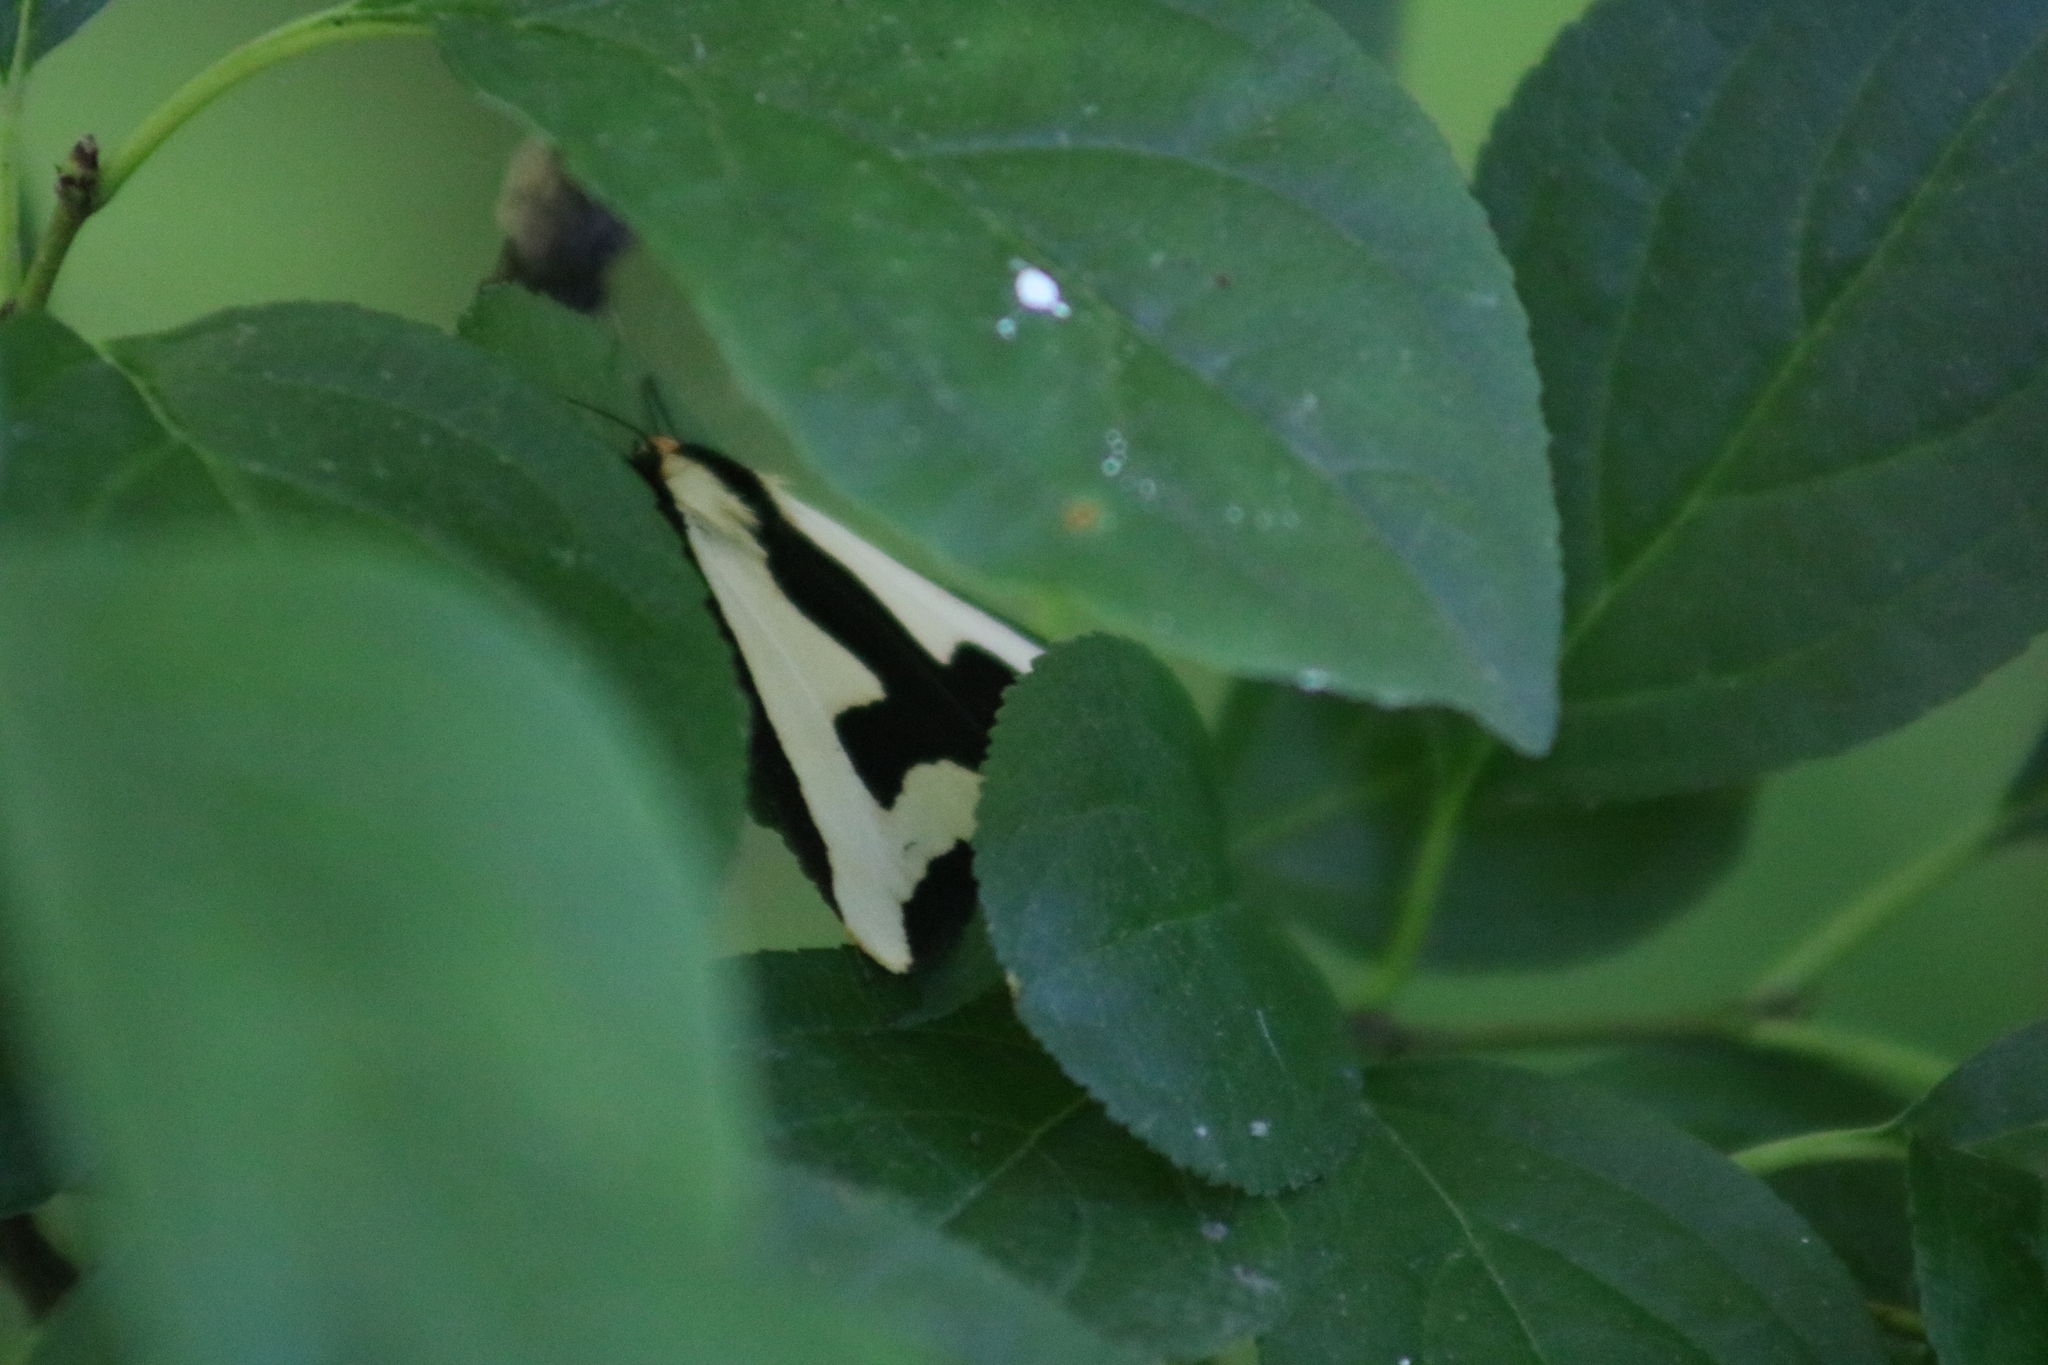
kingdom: Animalia
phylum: Arthropoda
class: Insecta
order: Lepidoptera
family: Erebidae
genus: Haploa
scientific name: Haploa clymene
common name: Clymene moth
